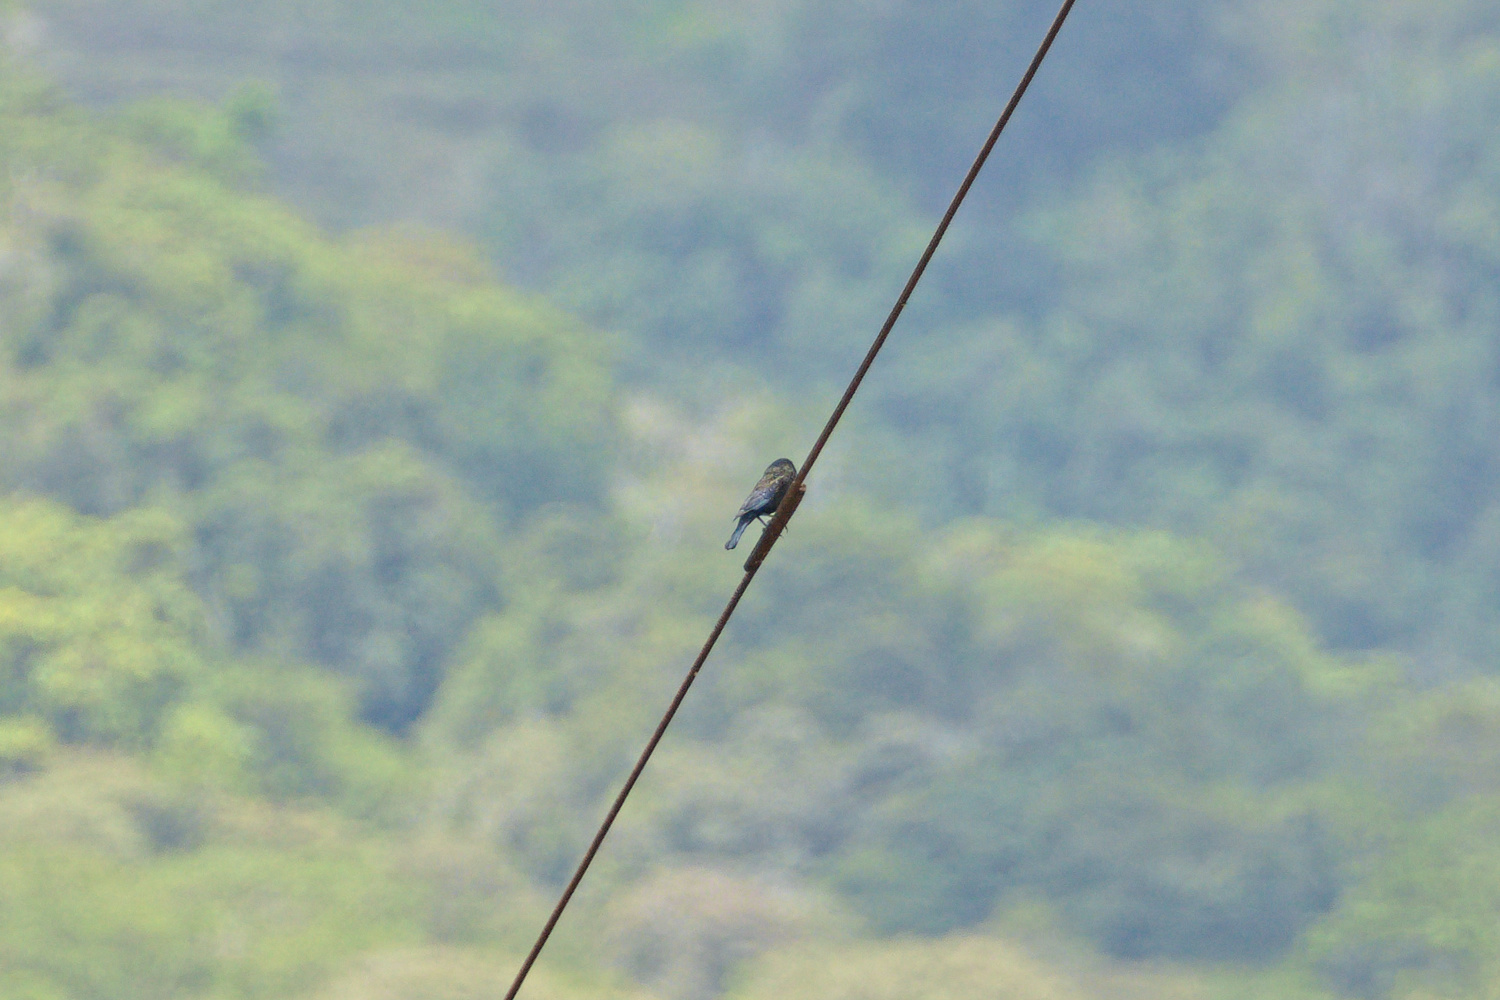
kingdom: Animalia
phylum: Chordata
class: Aves
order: Passeriformes
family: Icteridae
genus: Molothrus
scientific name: Molothrus aeneus
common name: Bronzed cowbird
